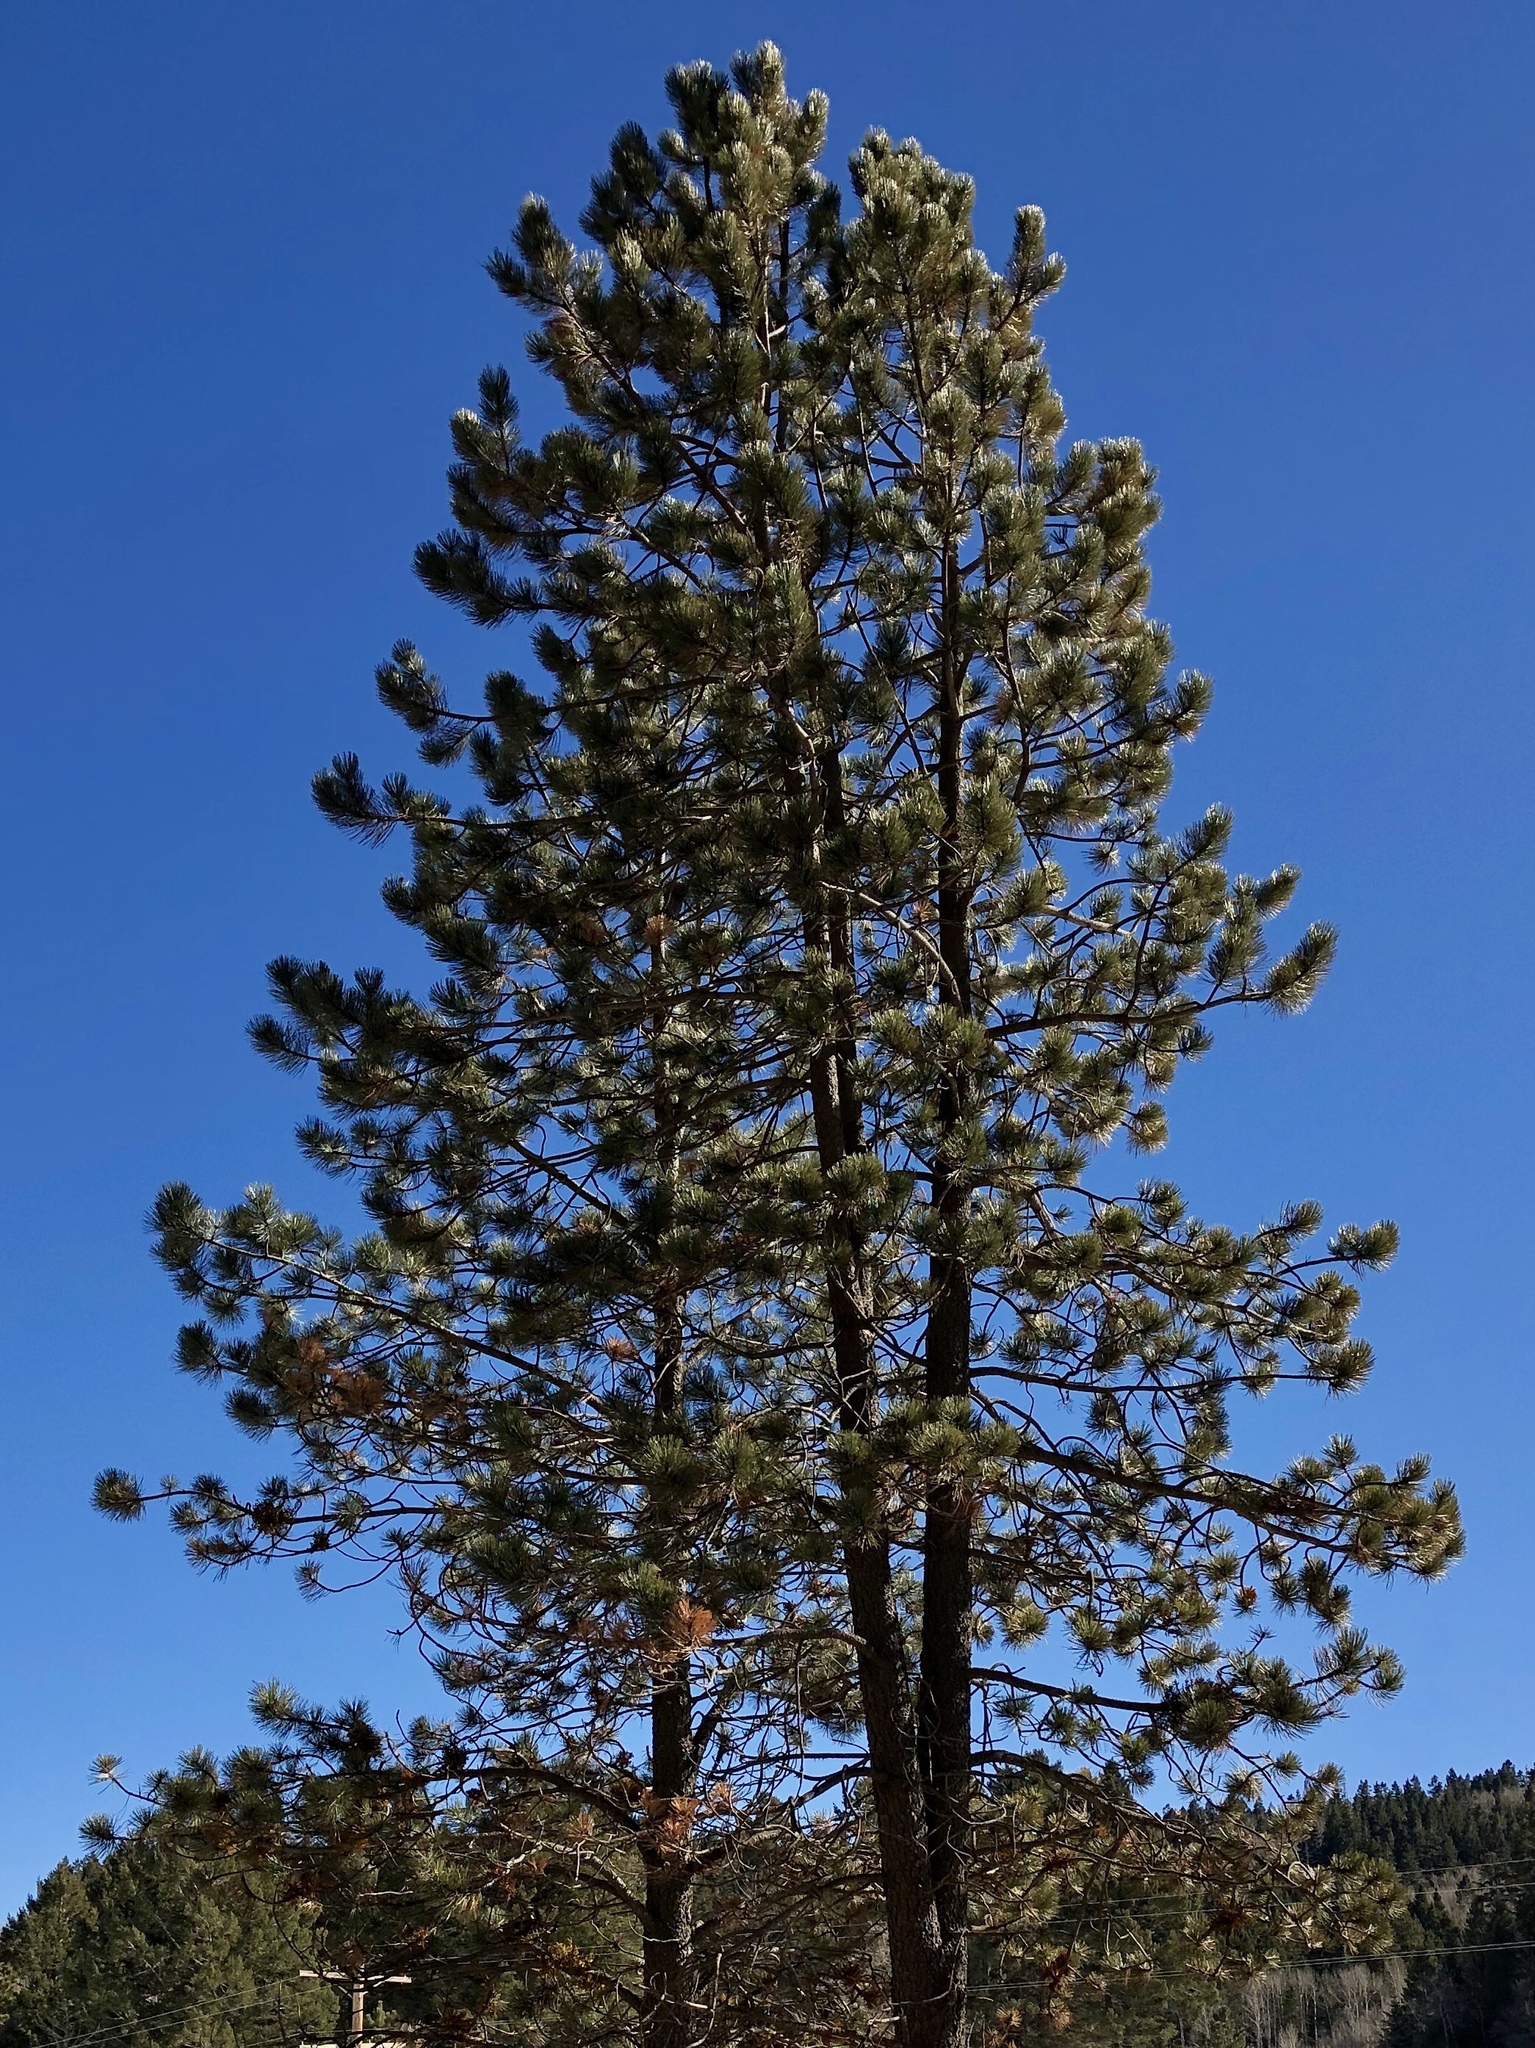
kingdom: Plantae
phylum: Tracheophyta
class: Pinopsida
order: Pinales
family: Pinaceae
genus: Pinus
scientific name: Pinus strobiformis
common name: Southwestern white pine
